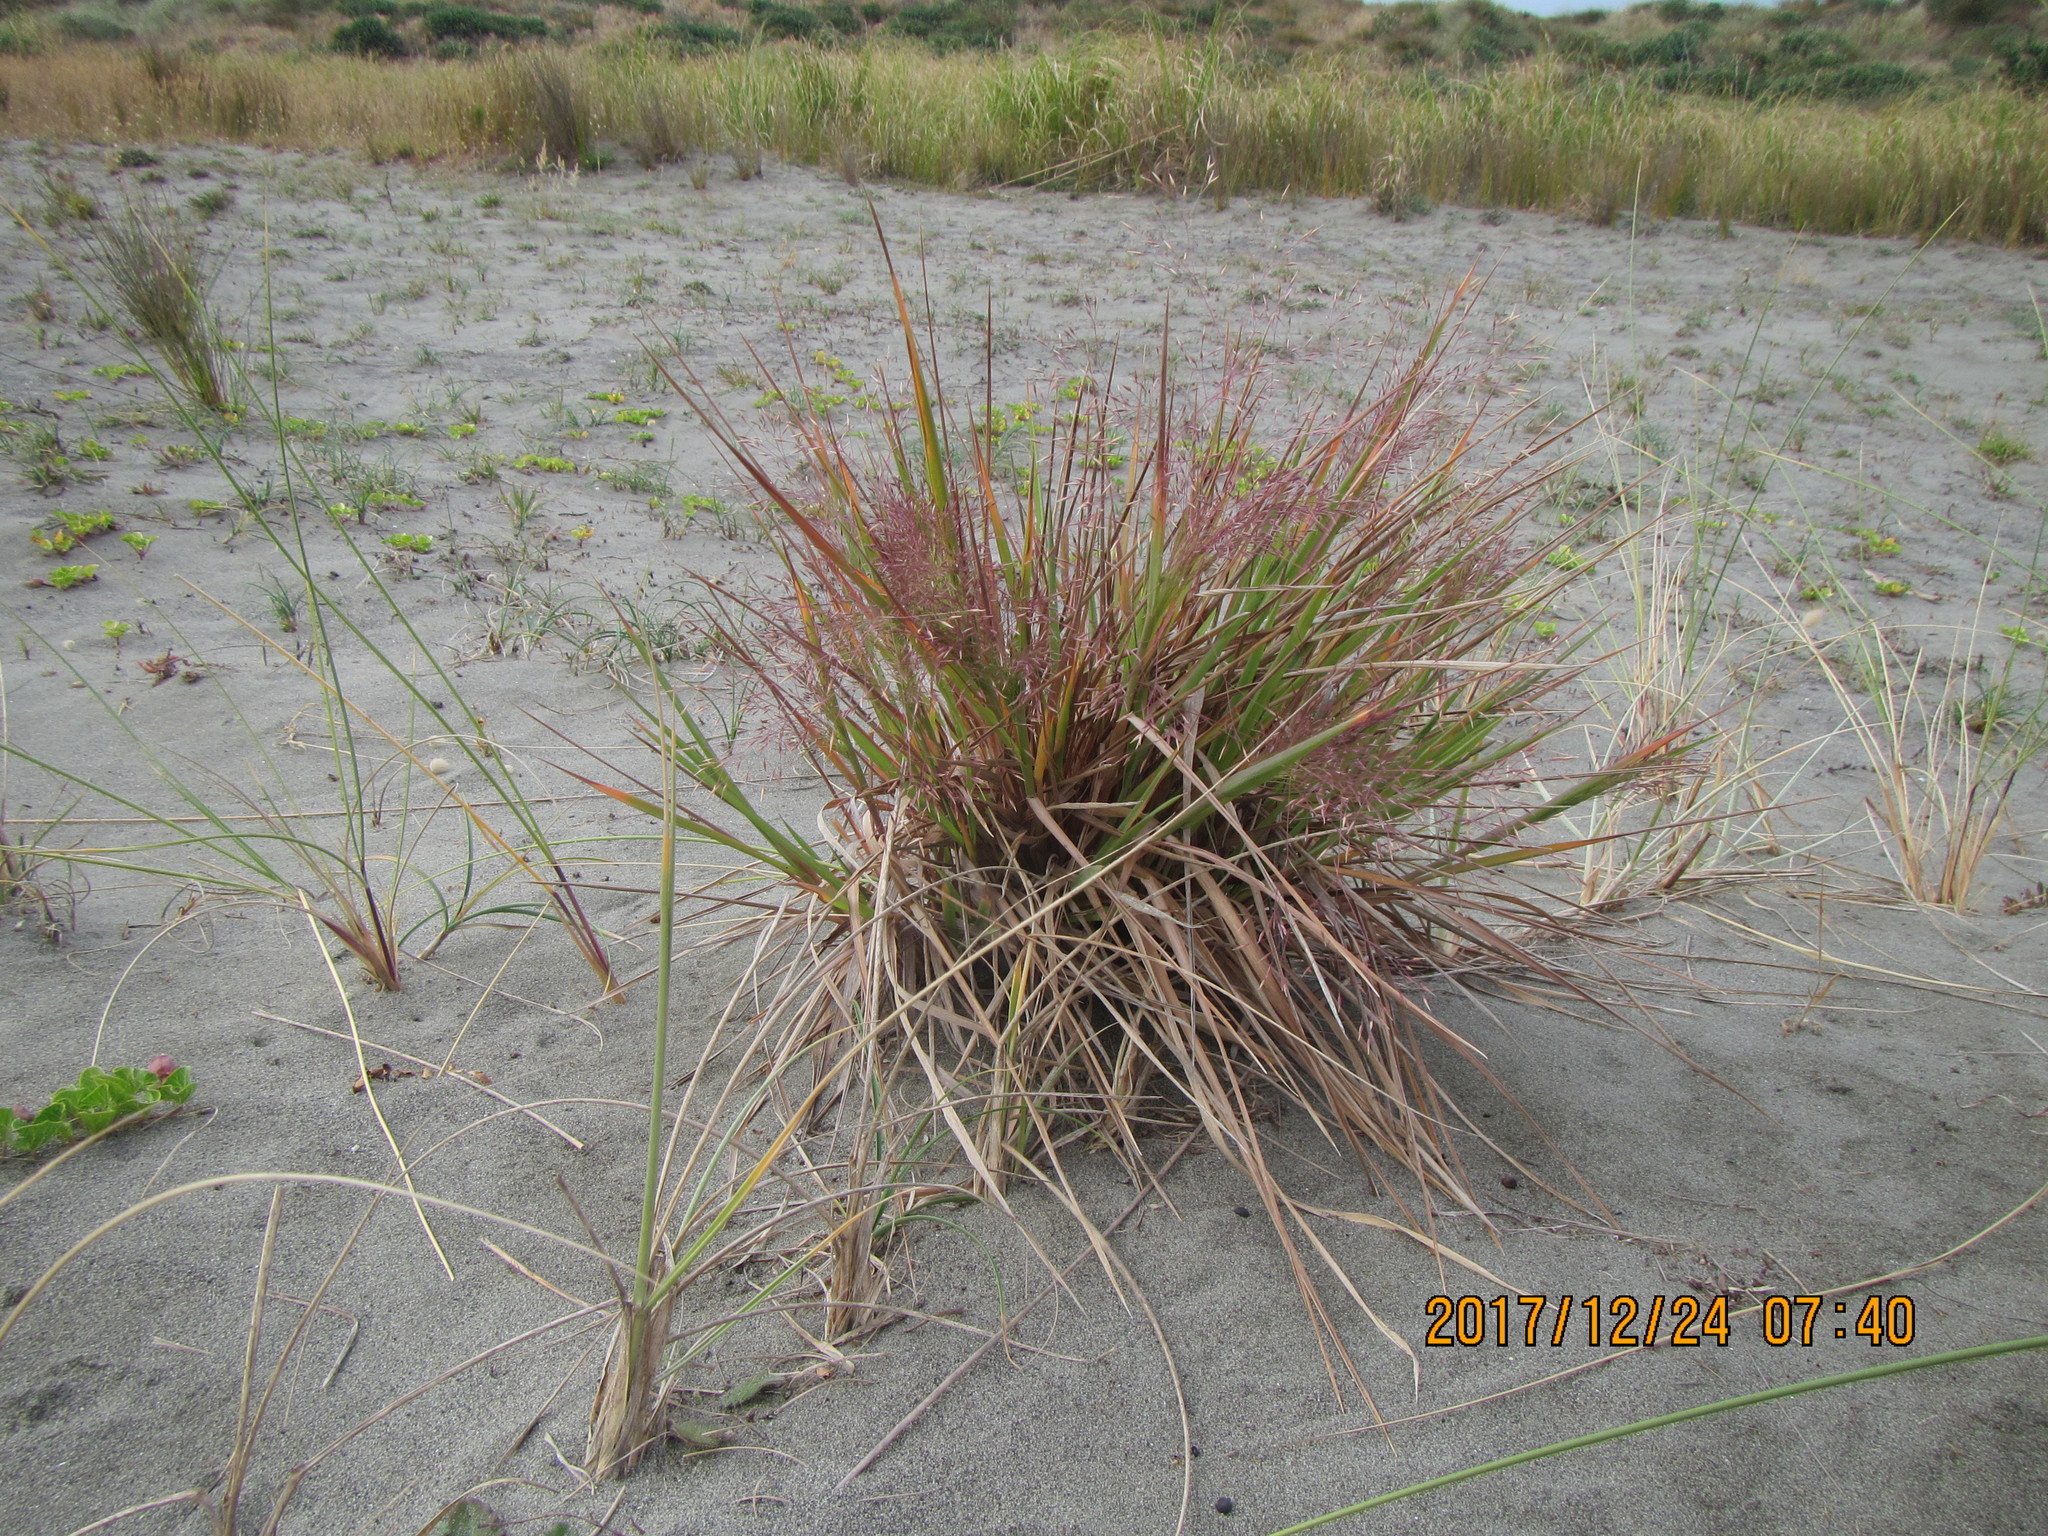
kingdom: Plantae
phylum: Tracheophyta
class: Liliopsida
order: Poales
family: Poaceae
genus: Lachnagrostis
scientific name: Lachnagrostis billardierei
